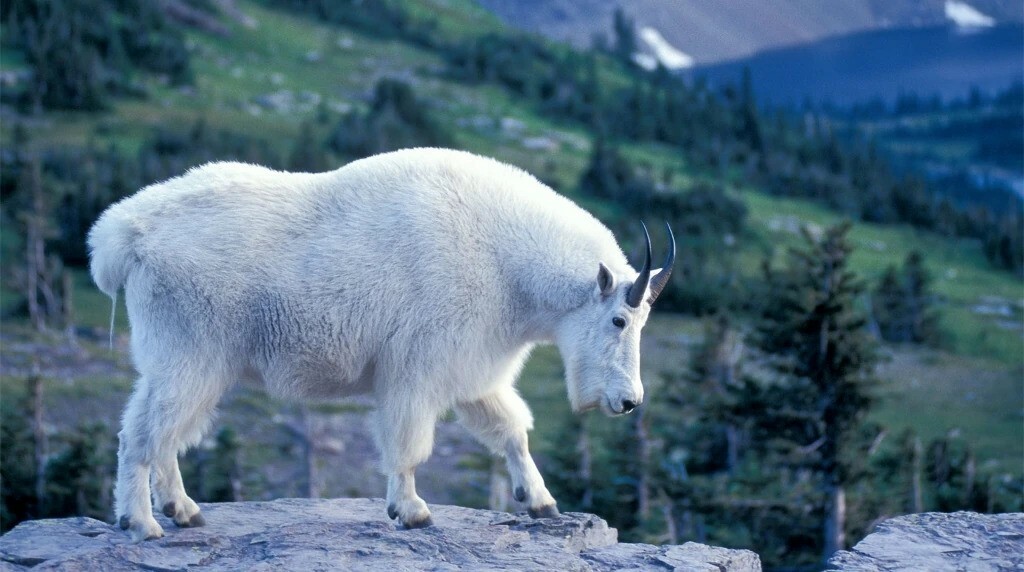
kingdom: Animalia
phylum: Chordata
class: Mammalia
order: Artiodactyla
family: Bovidae
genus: Oreamnos
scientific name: Oreamnos americanus
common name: Mountain goat
